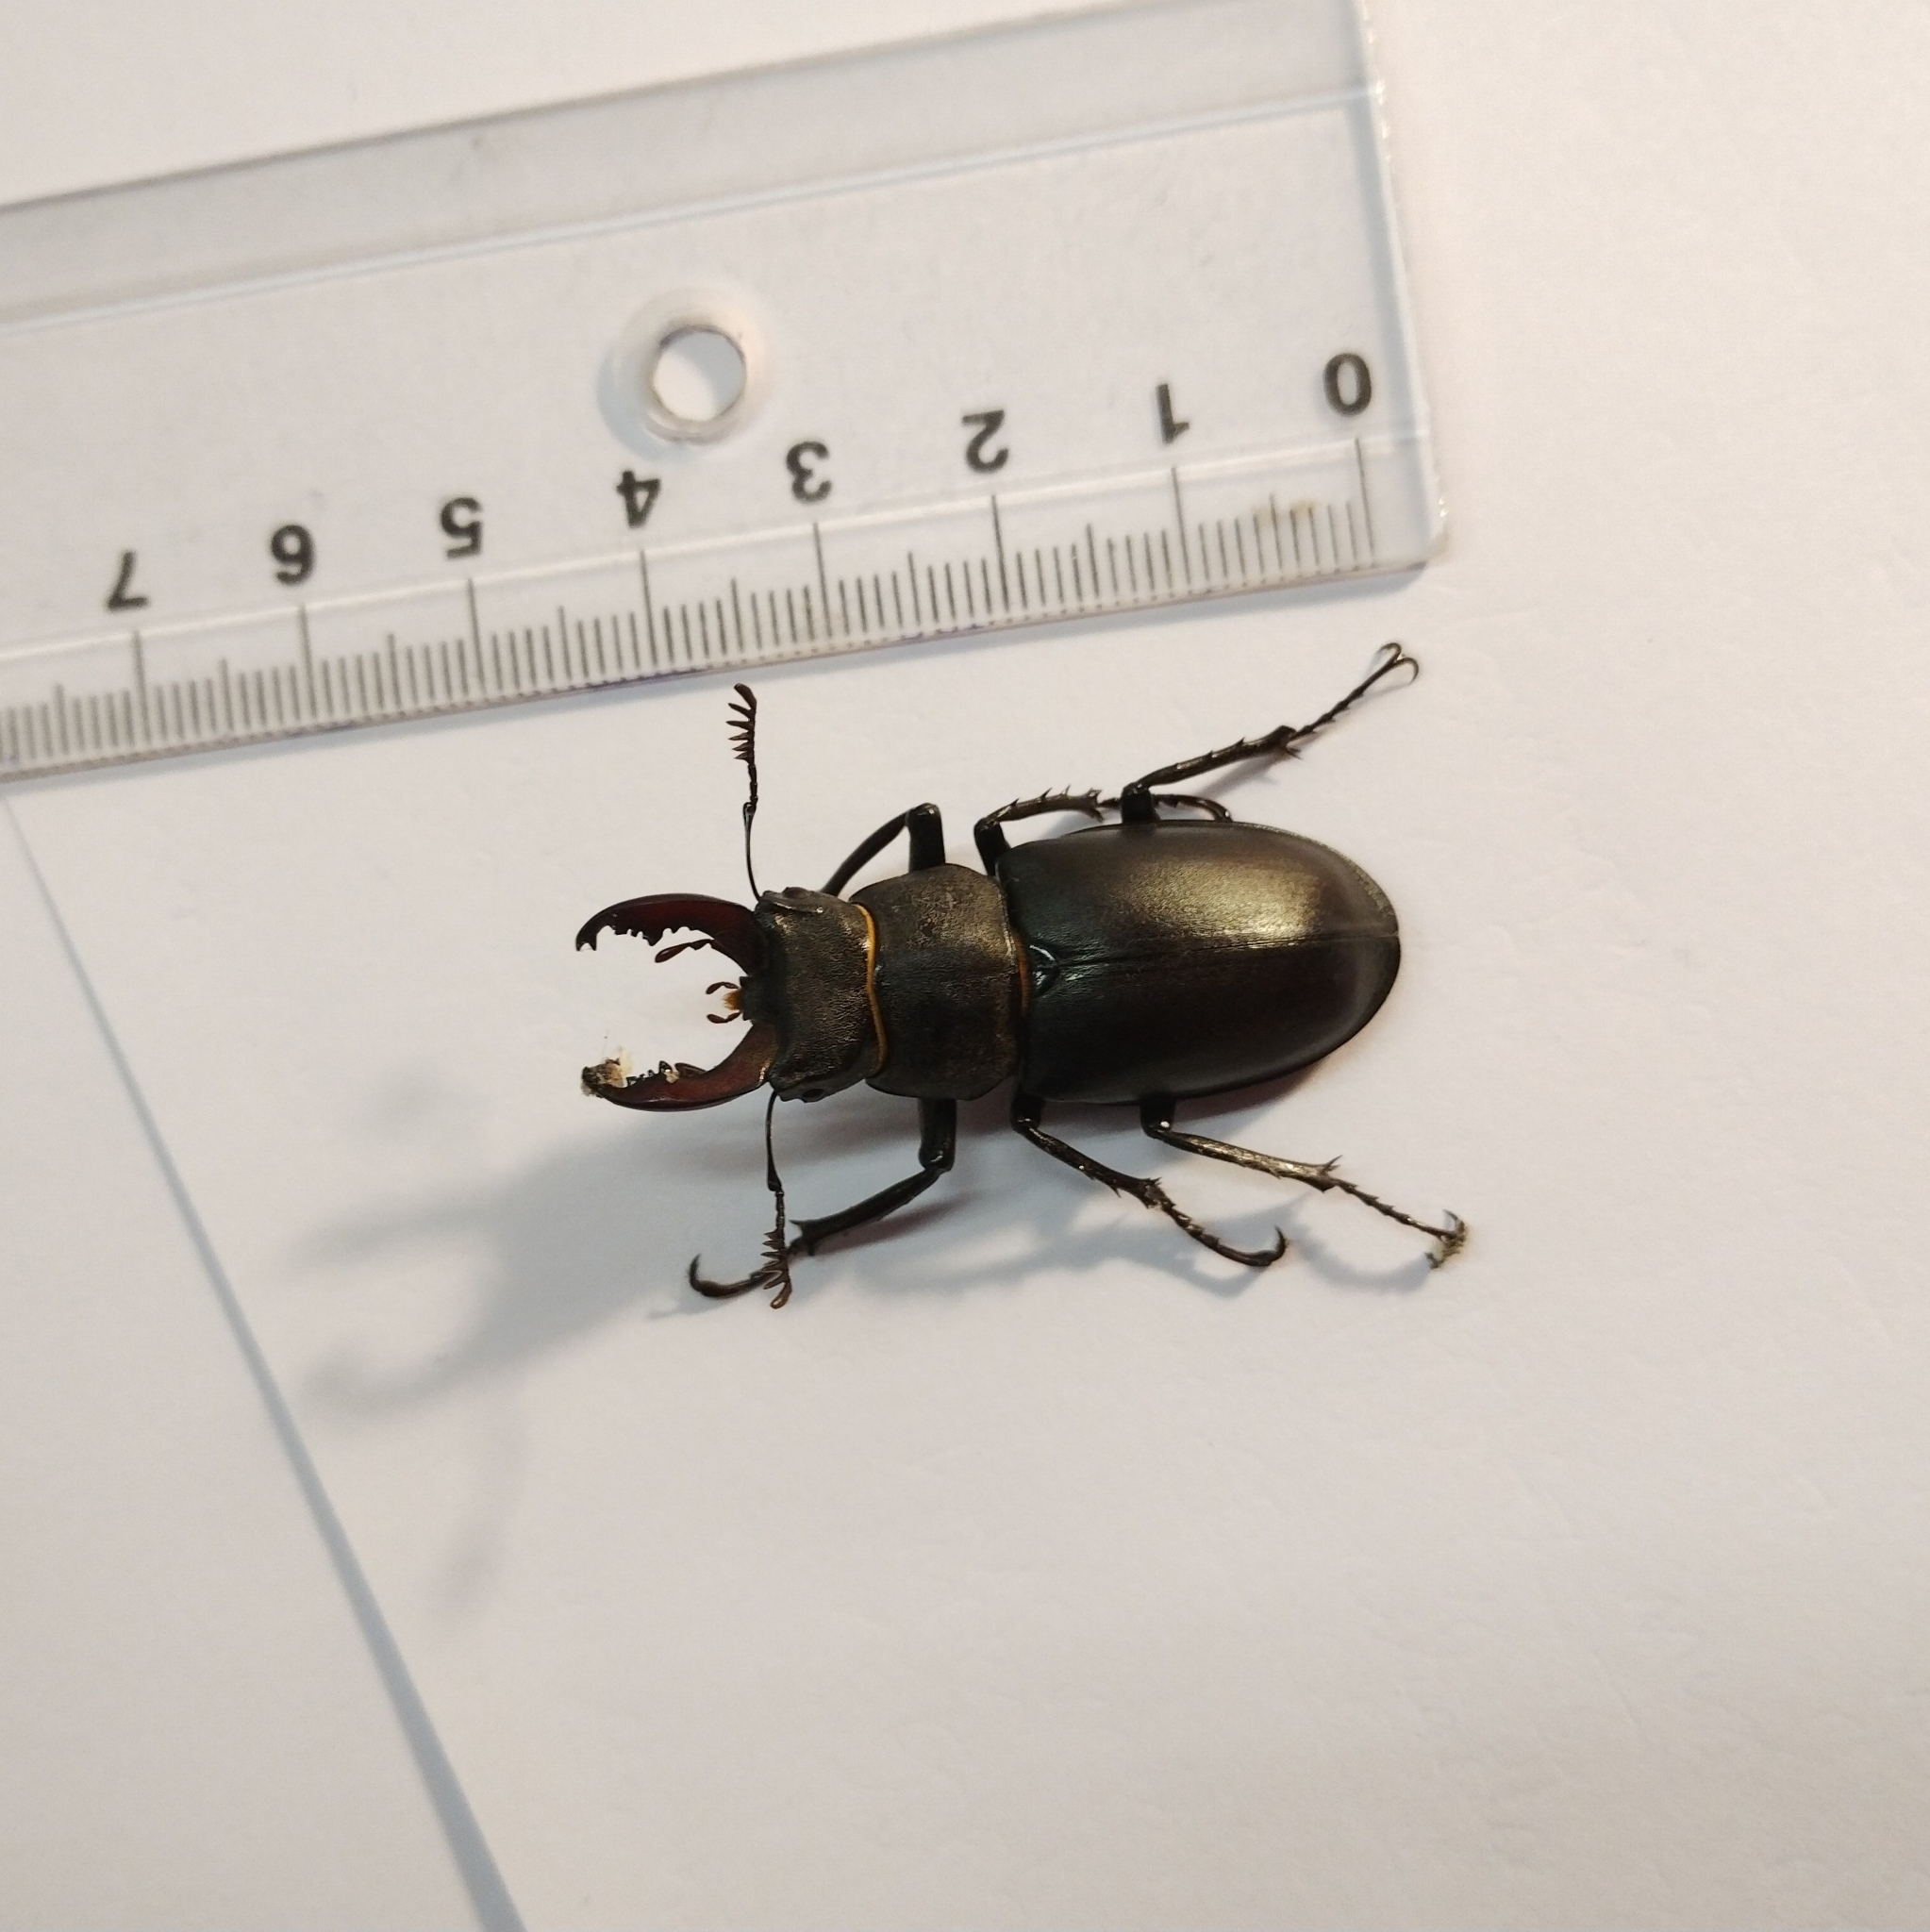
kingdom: Animalia
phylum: Arthropoda
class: Insecta
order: Coleoptera
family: Lucanidae
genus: Lucanus
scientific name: Lucanus cervus
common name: Stag beetle
